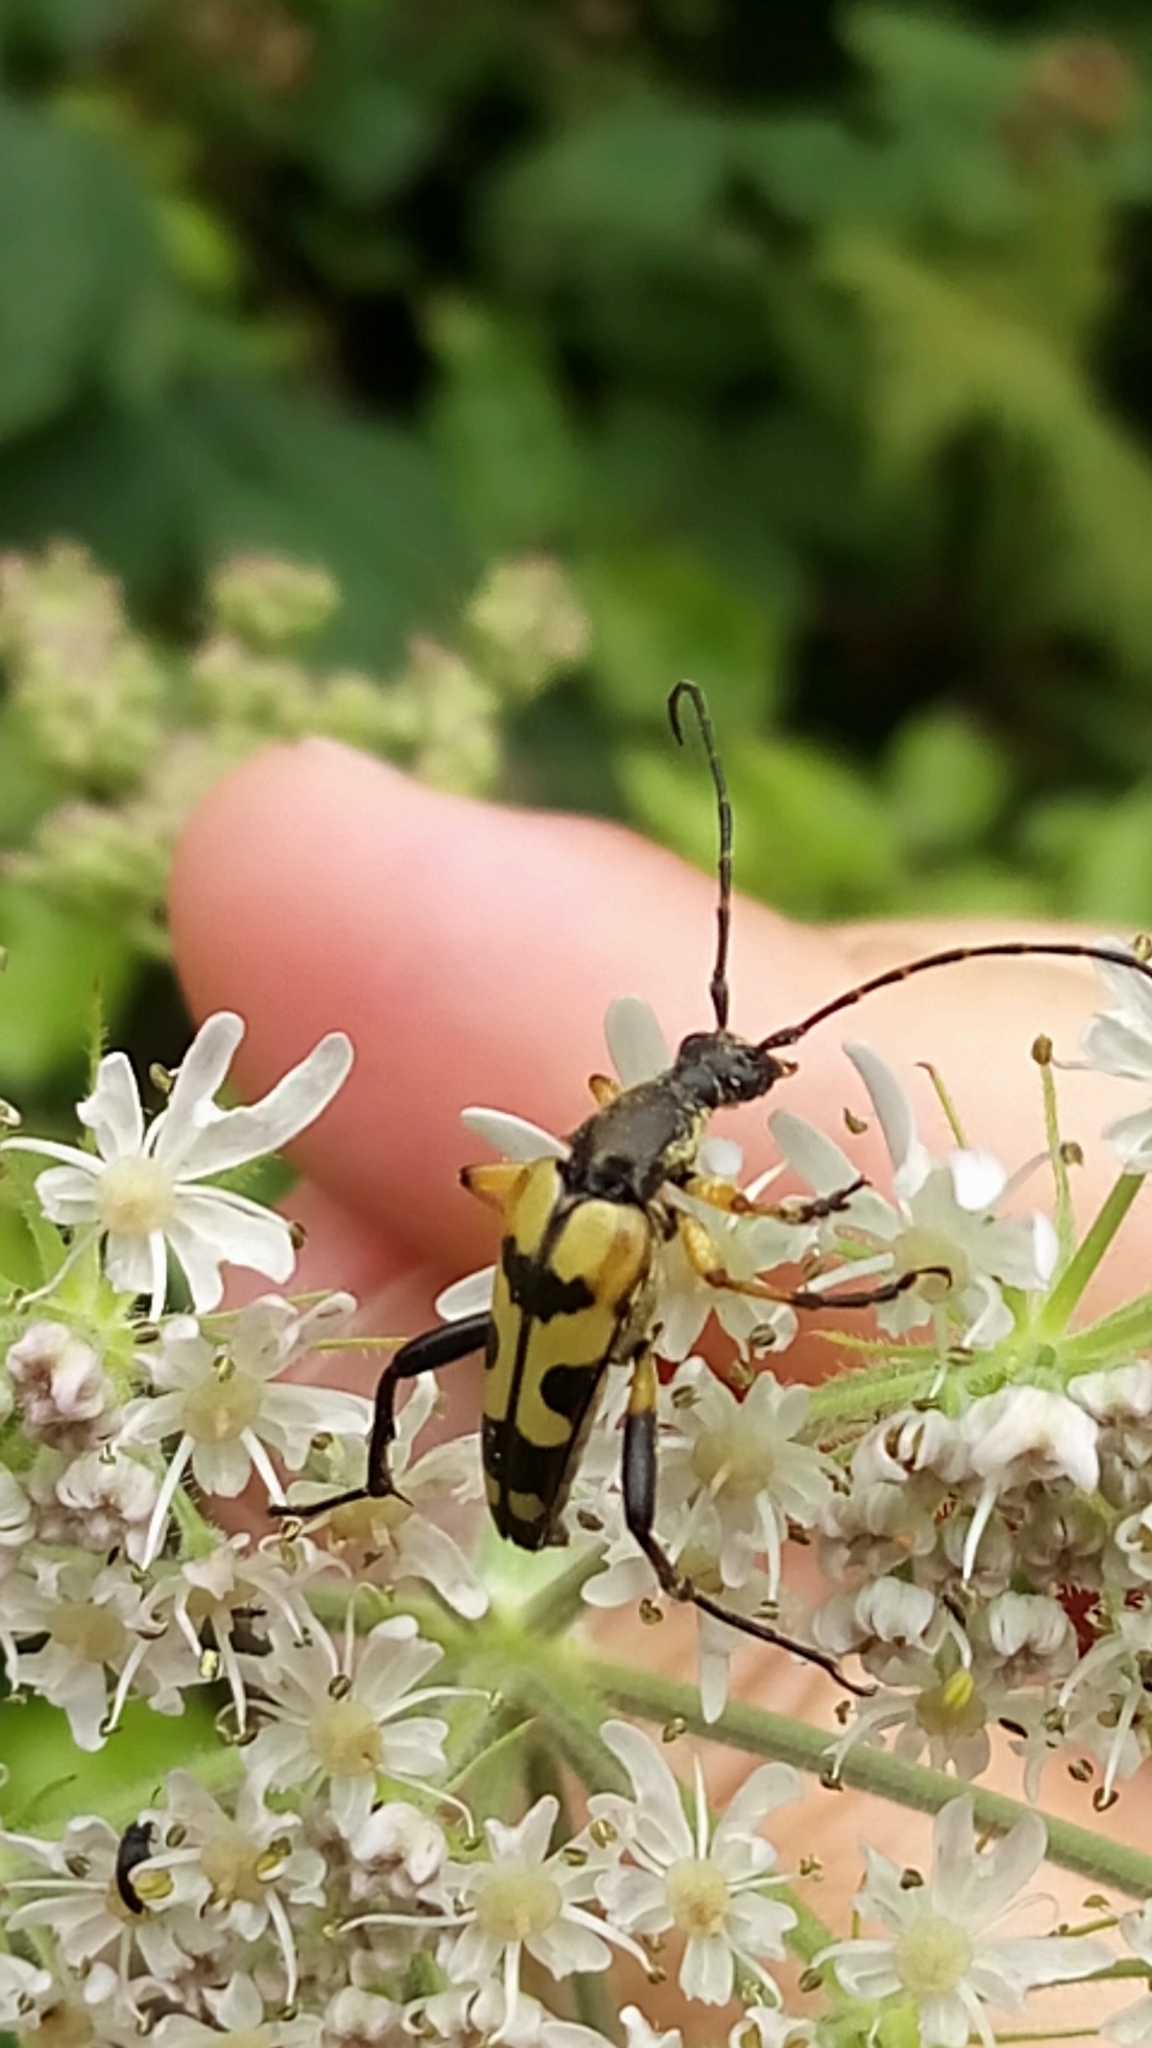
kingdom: Animalia
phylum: Arthropoda
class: Insecta
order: Coleoptera
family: Cerambycidae
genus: Rutpela
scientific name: Rutpela maculata
